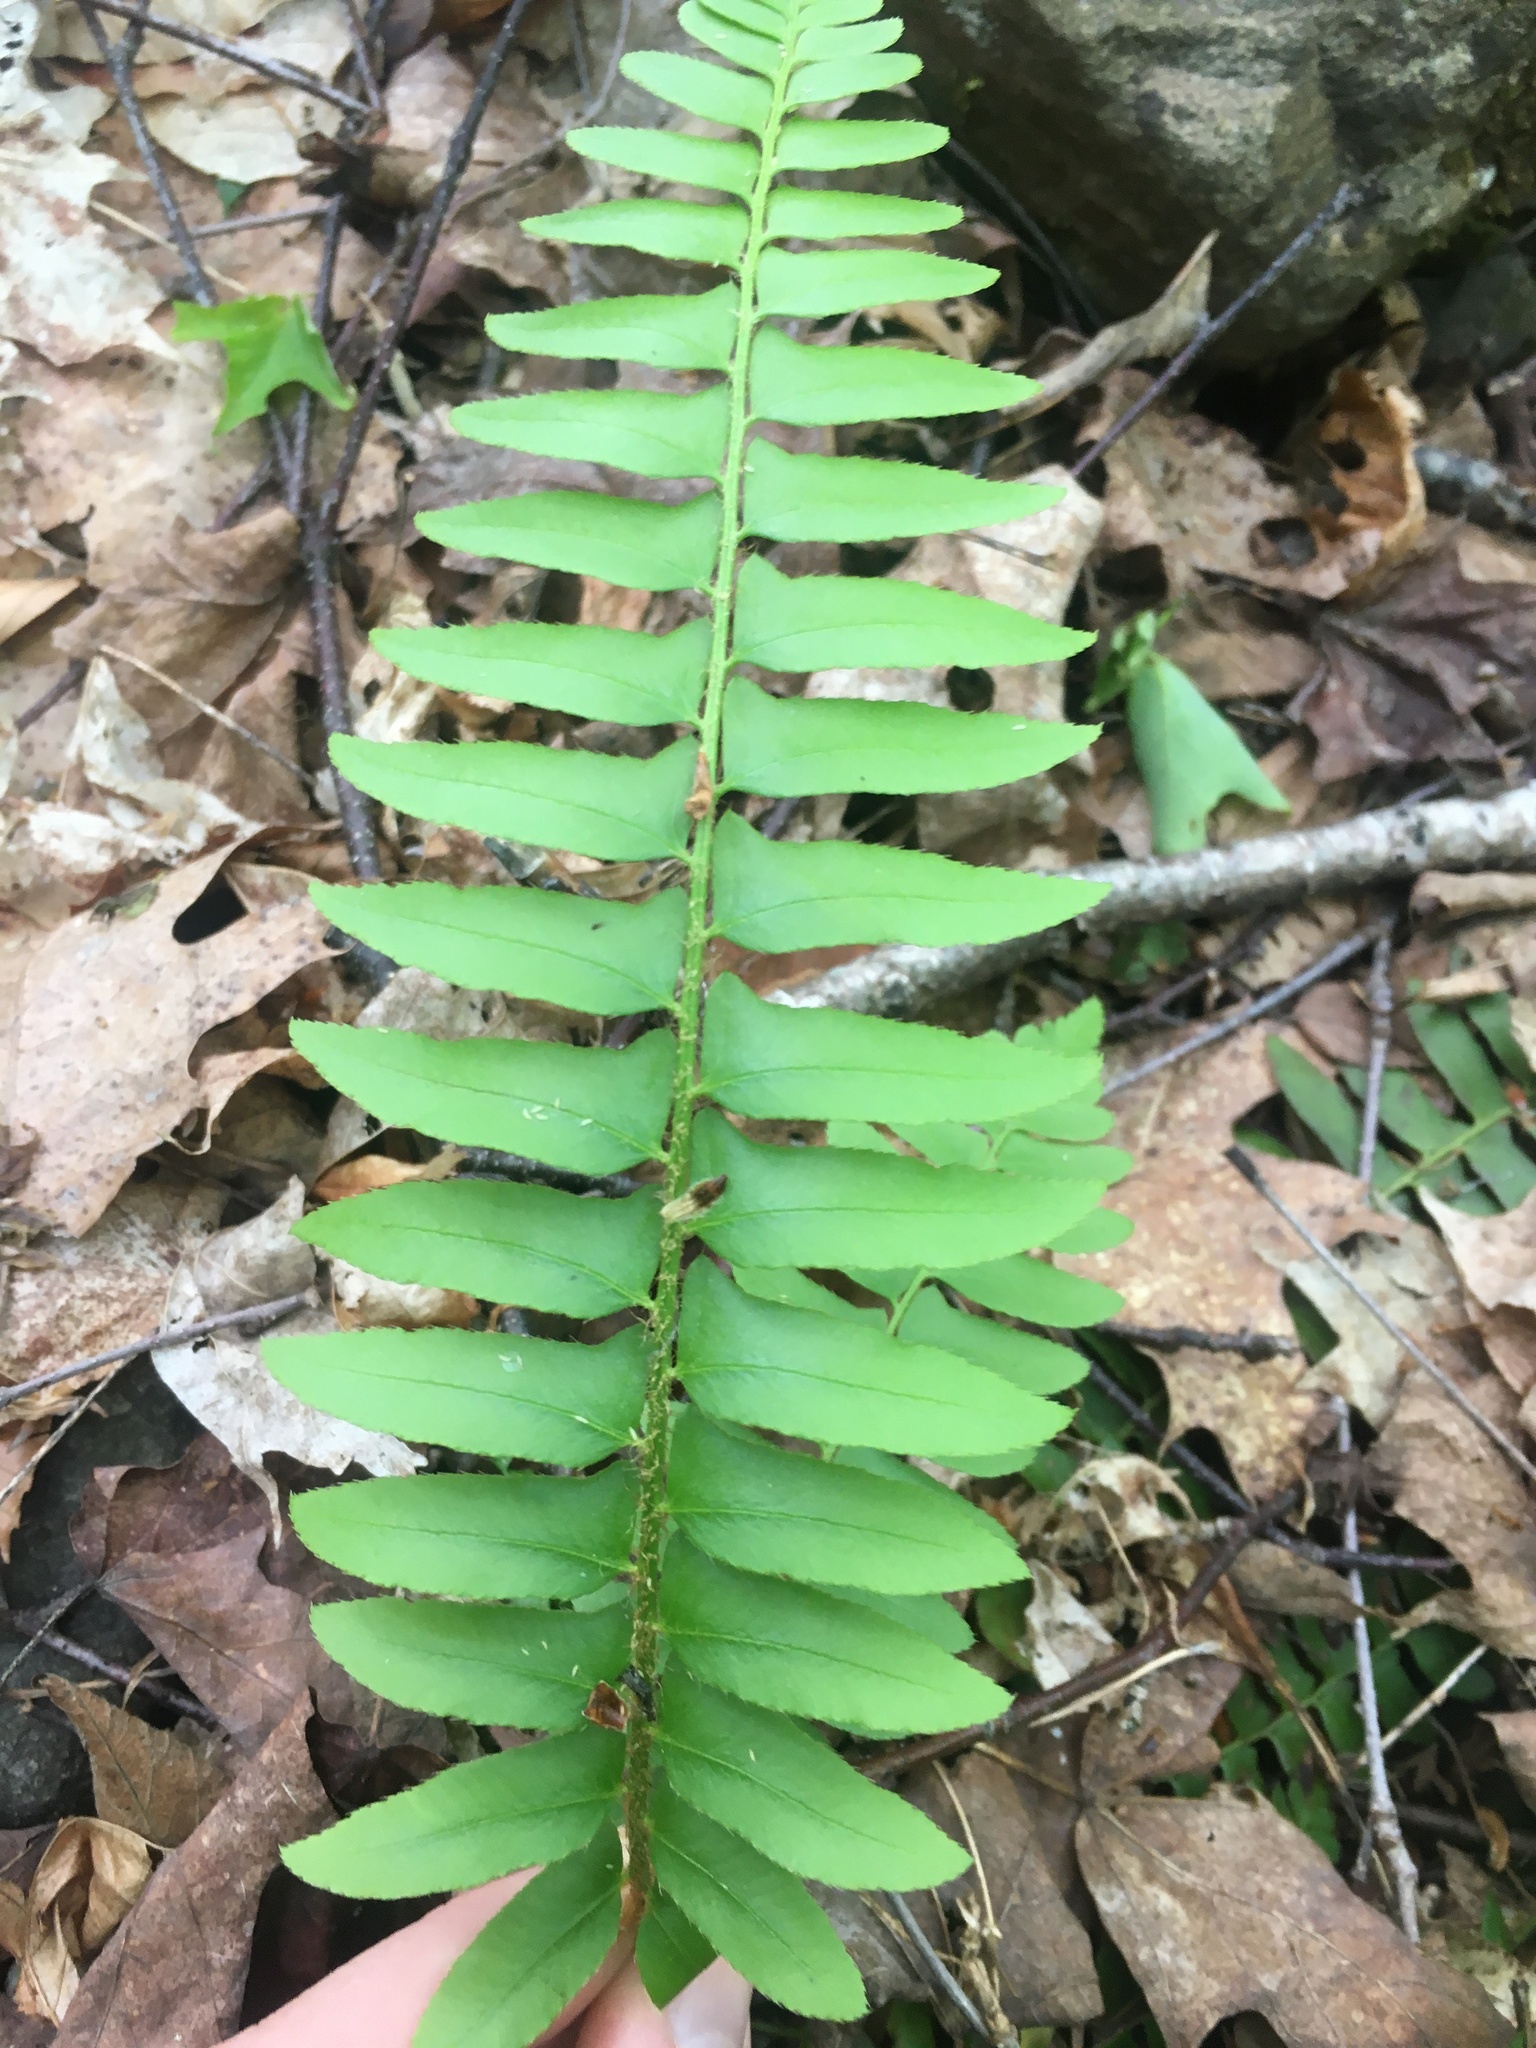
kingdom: Plantae
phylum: Tracheophyta
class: Polypodiopsida
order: Polypodiales
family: Dryopteridaceae
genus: Polystichum
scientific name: Polystichum acrostichoides
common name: Christmas fern
